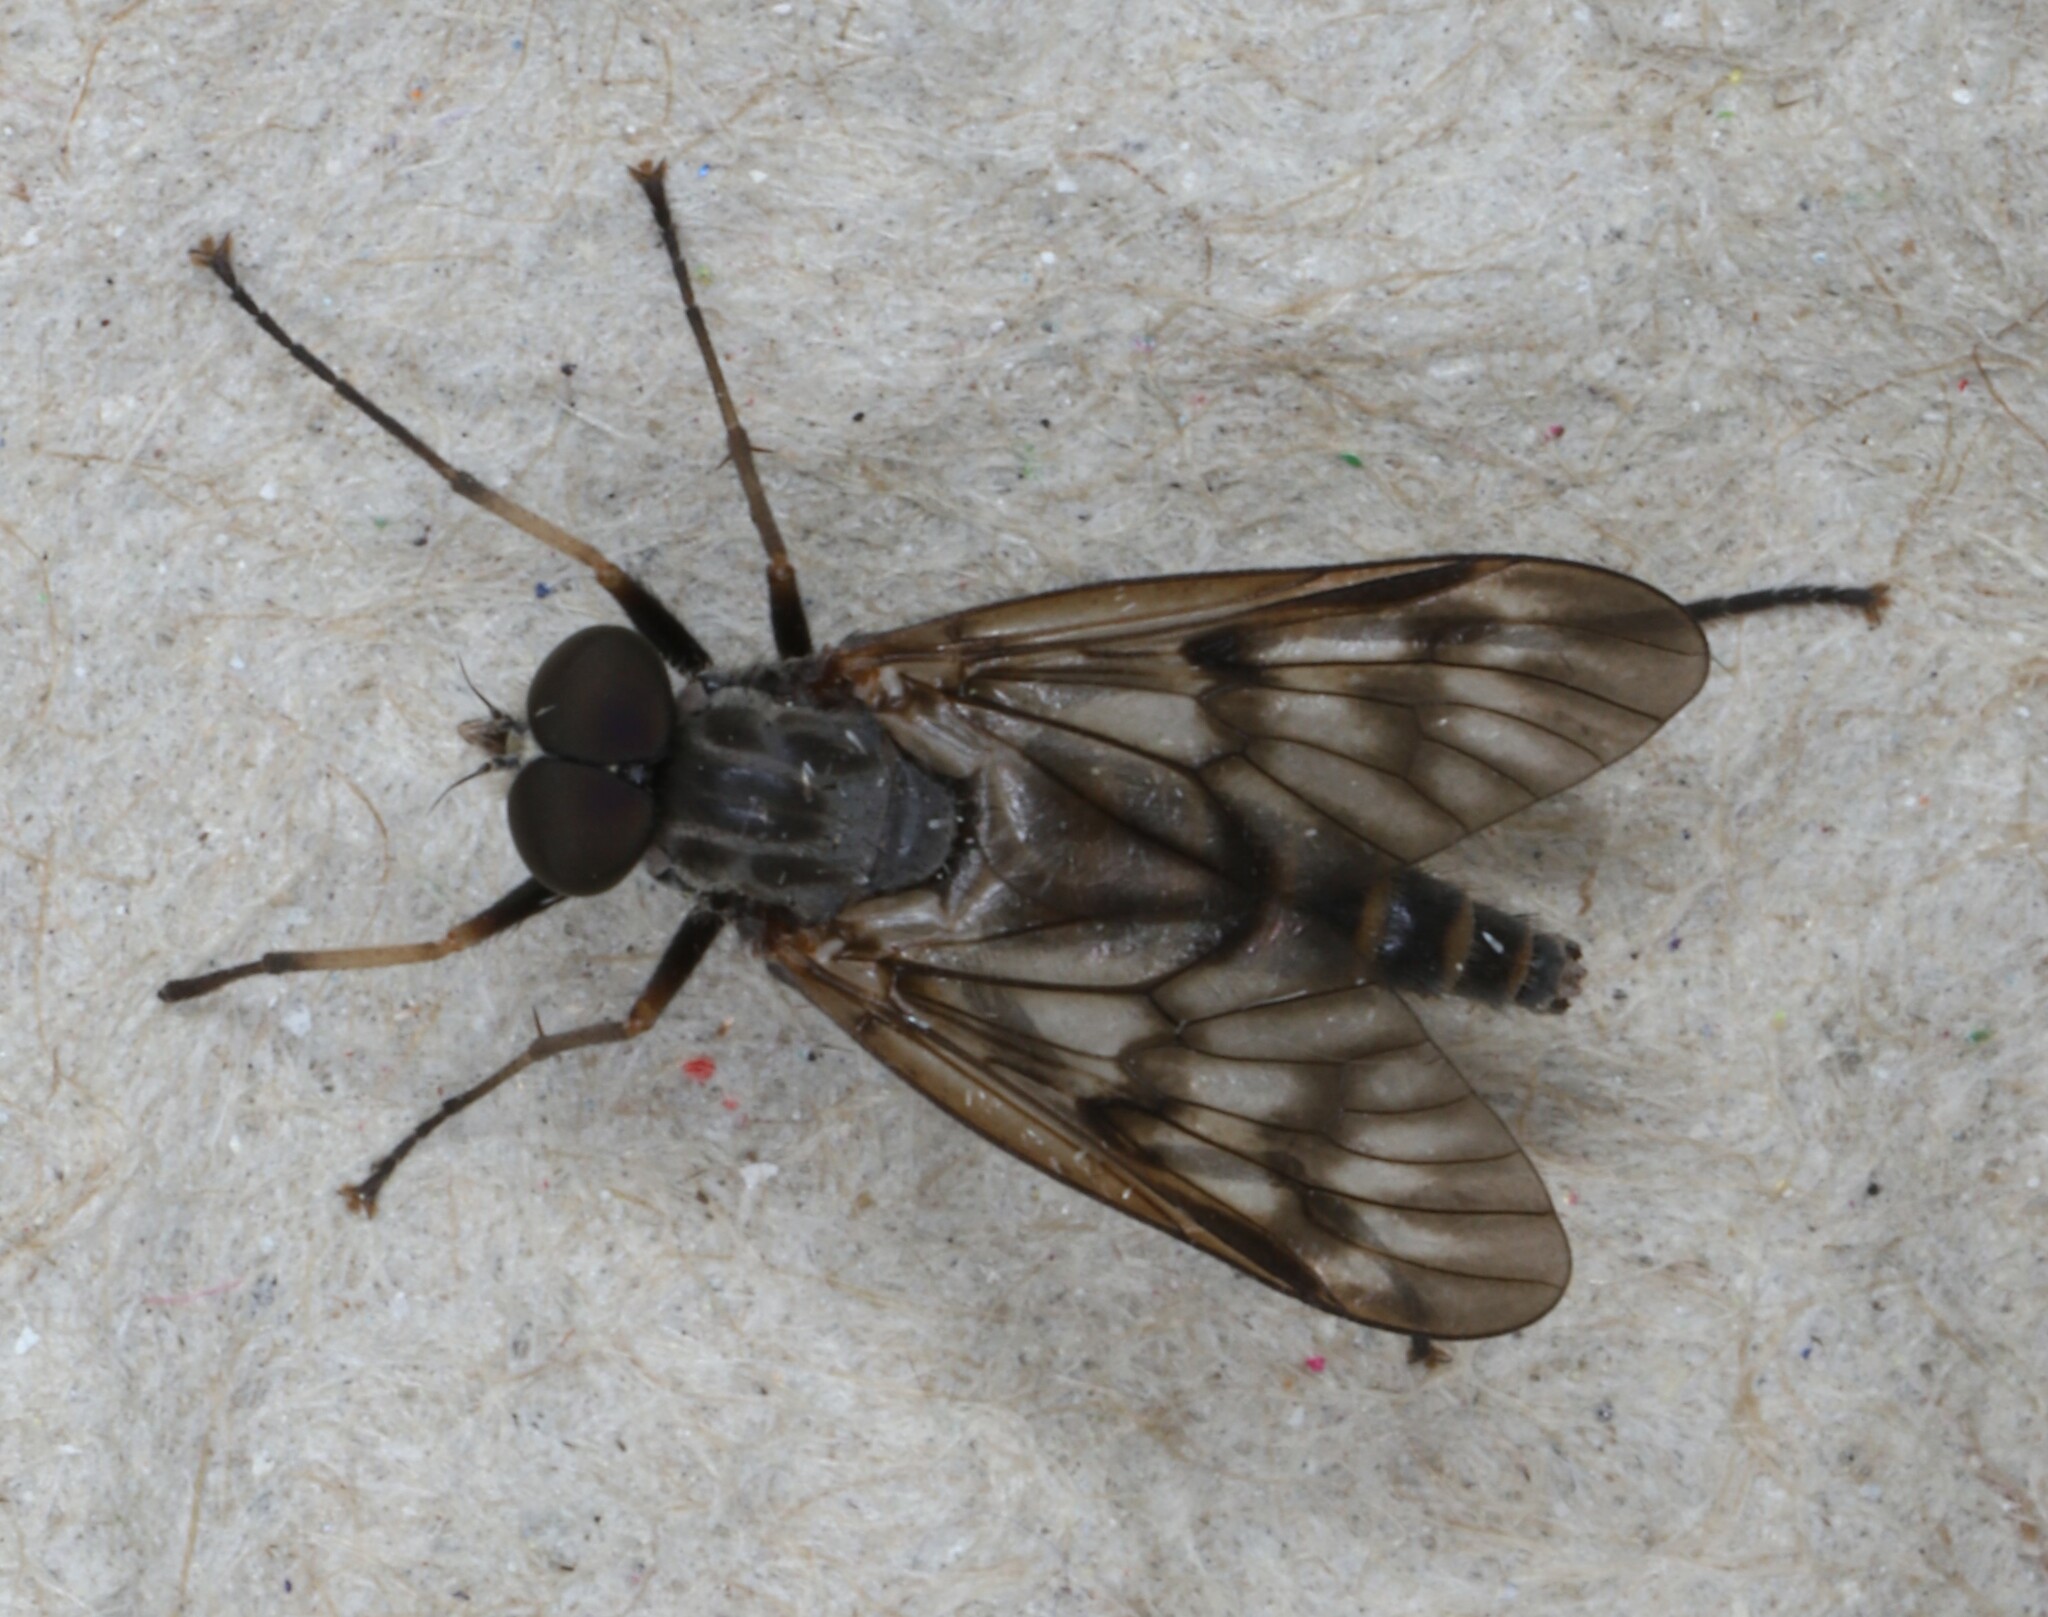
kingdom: Animalia
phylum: Arthropoda
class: Insecta
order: Diptera
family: Rhagionidae
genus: Rhagio
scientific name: Rhagio mystaceus
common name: Common snipe fly
